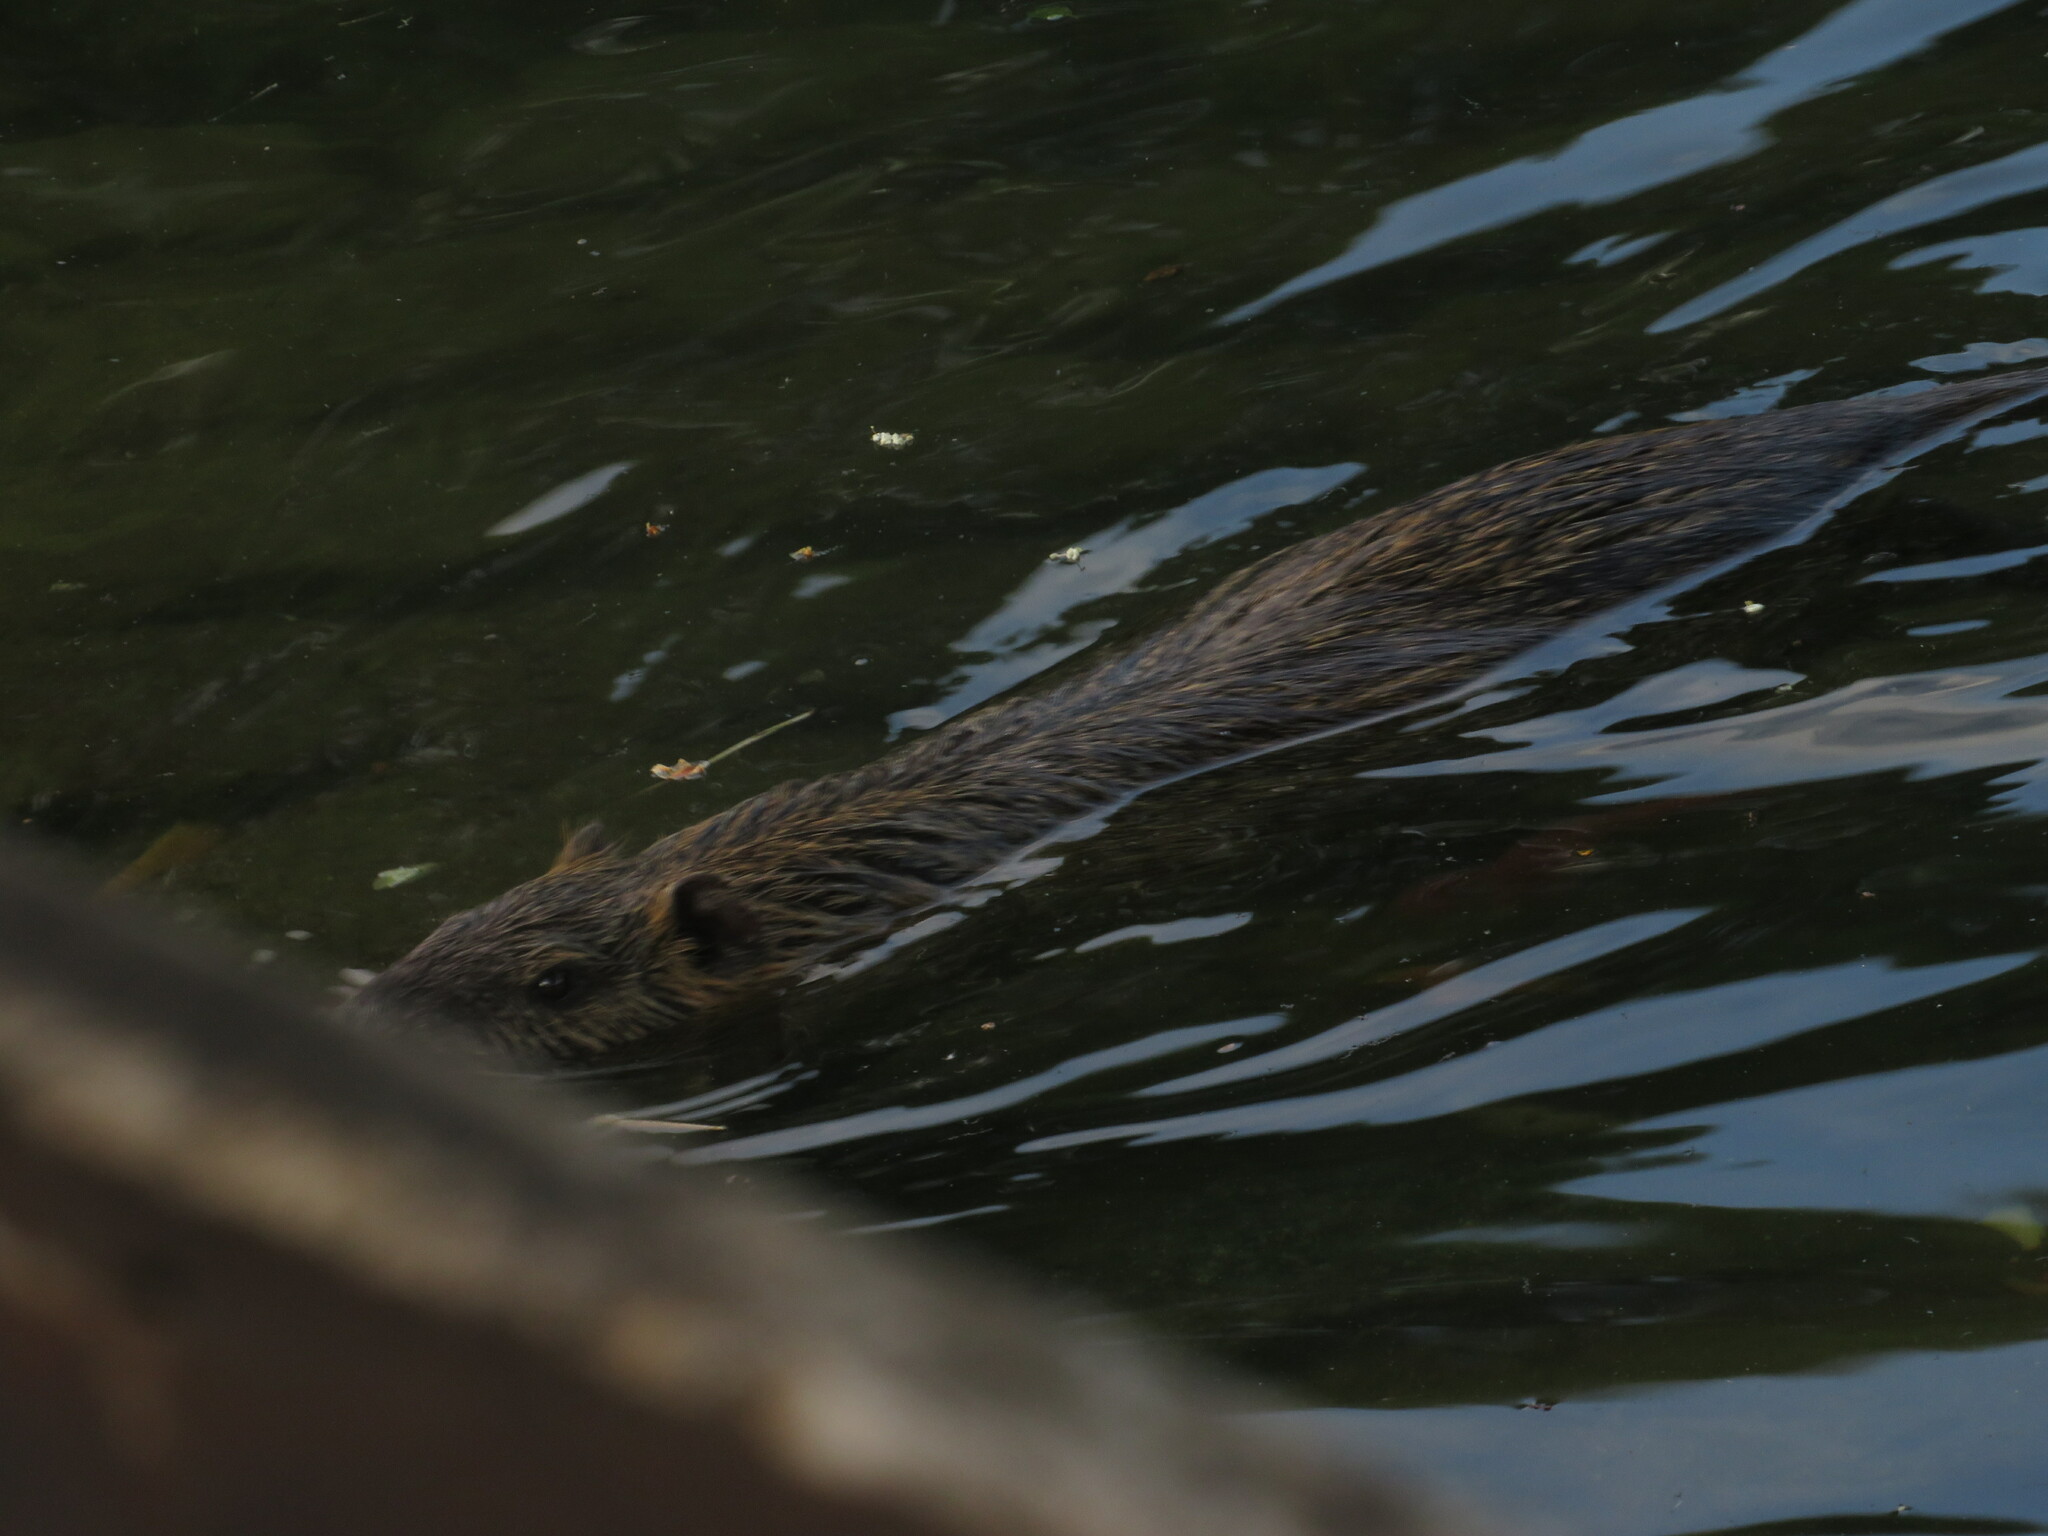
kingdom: Animalia
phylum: Chordata
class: Mammalia
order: Rodentia
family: Myocastoridae
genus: Myocastor
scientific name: Myocastor coypus
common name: Coypu
